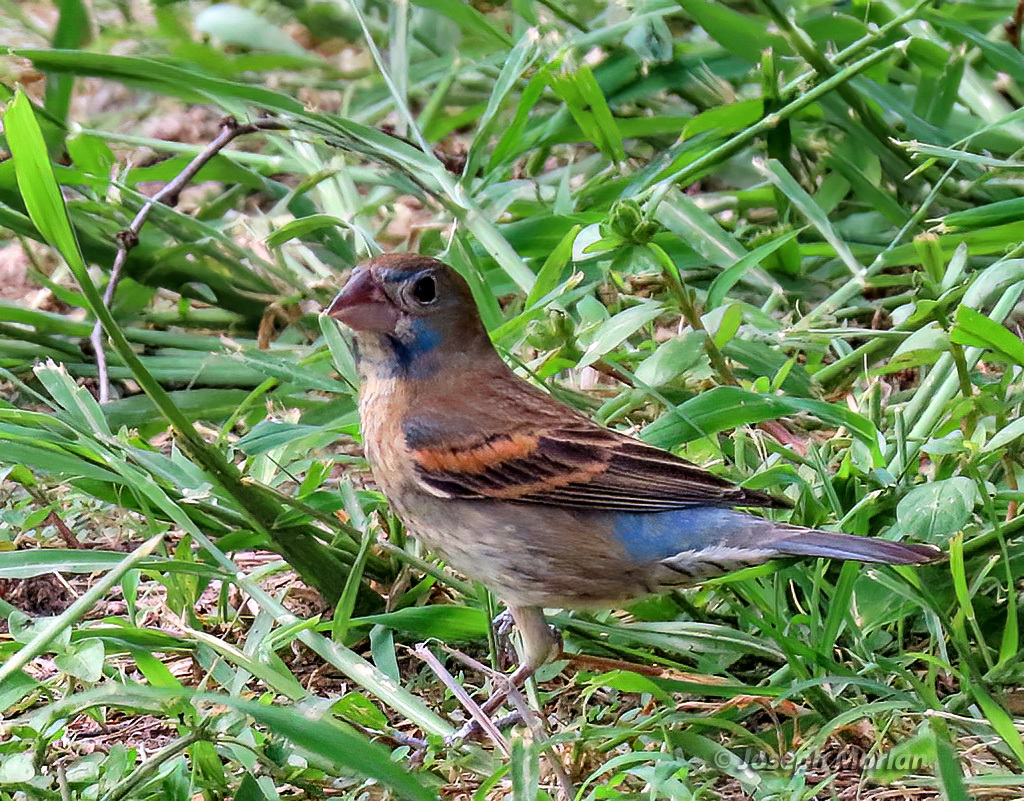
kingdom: Animalia
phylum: Chordata
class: Aves
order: Passeriformes
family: Cardinalidae
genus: Passerina
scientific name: Passerina caerulea
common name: Blue grosbeak
